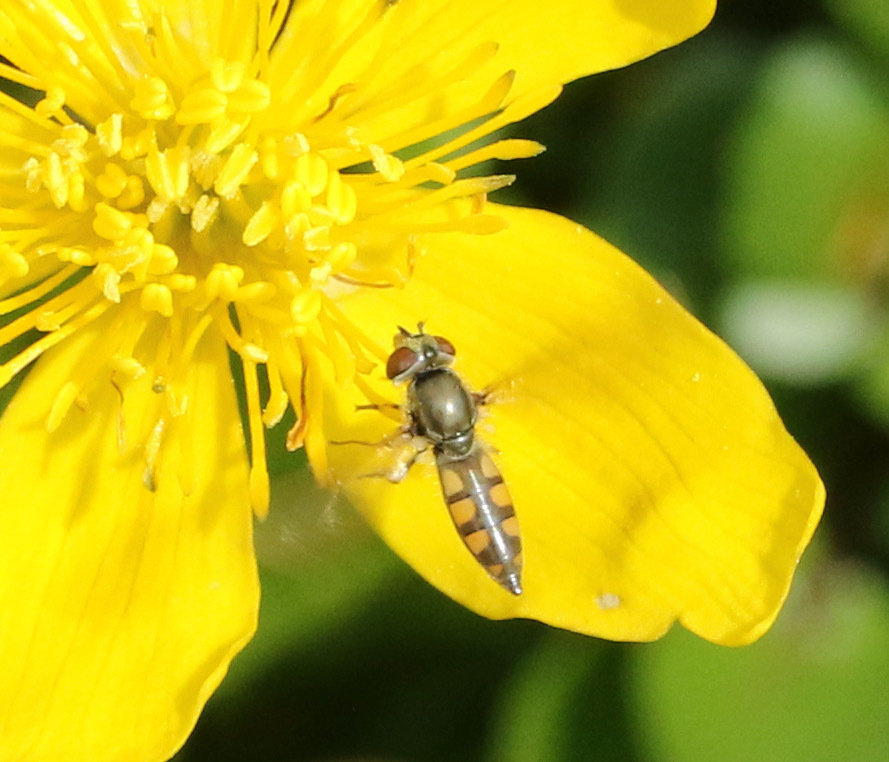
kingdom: Animalia
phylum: Arthropoda
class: Insecta
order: Diptera
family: Syrphidae
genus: Platycheirus
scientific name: Platycheirus manicatus
